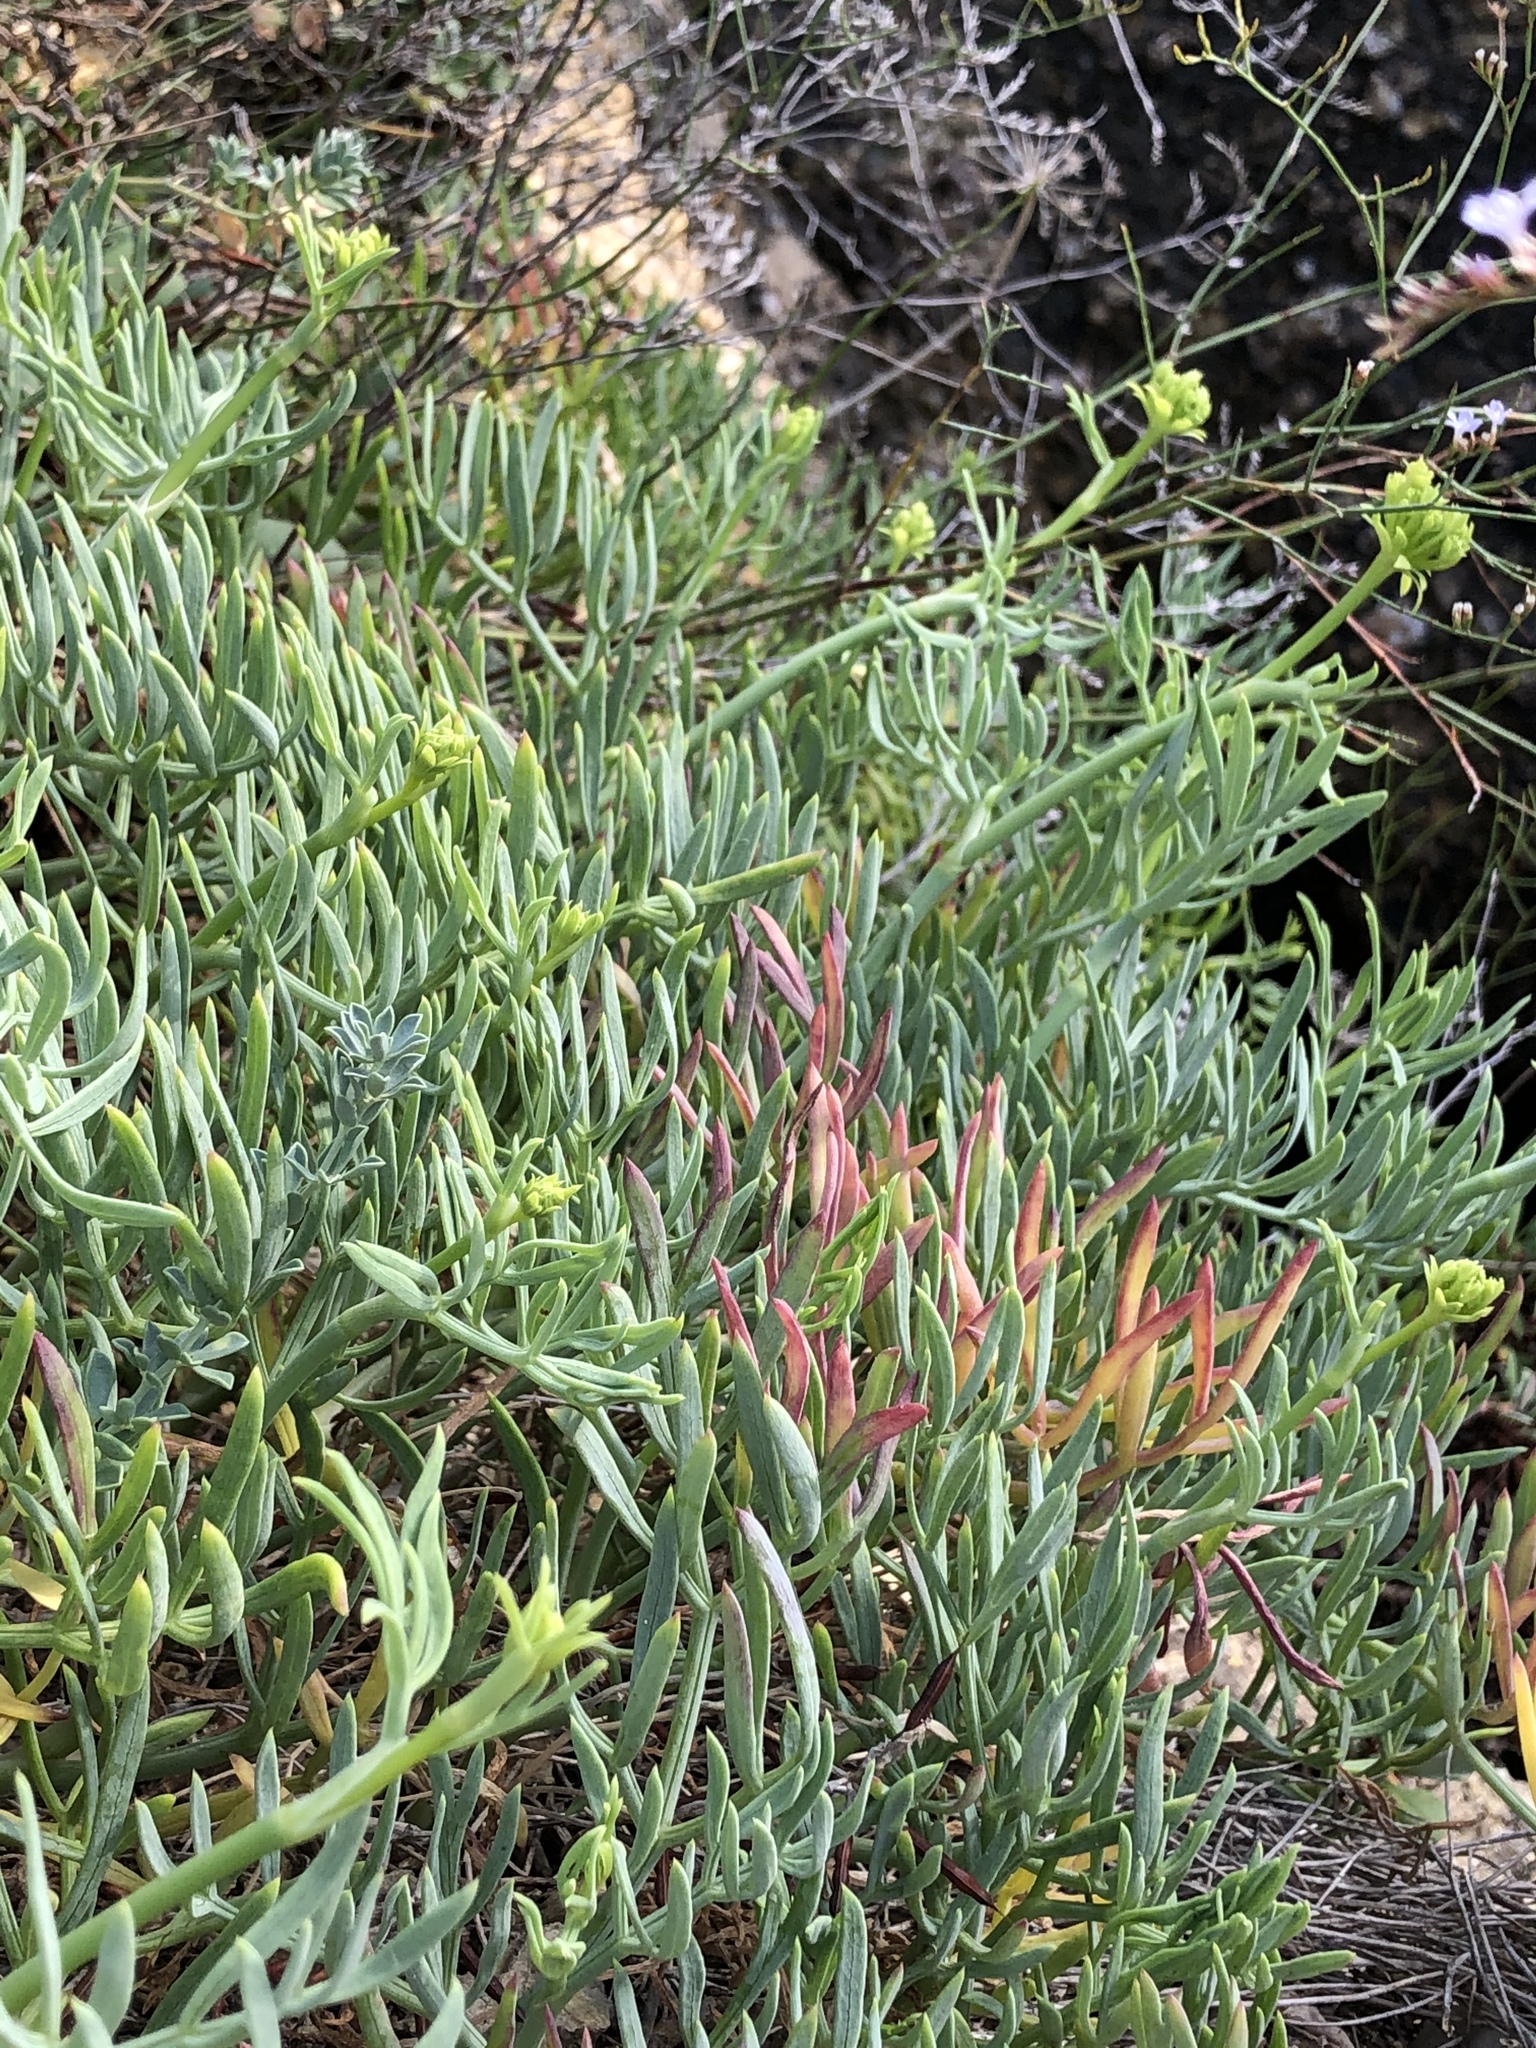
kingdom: Plantae
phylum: Tracheophyta
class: Magnoliopsida
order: Apiales
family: Apiaceae
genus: Crithmum
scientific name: Crithmum maritimum
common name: Rock samphire
